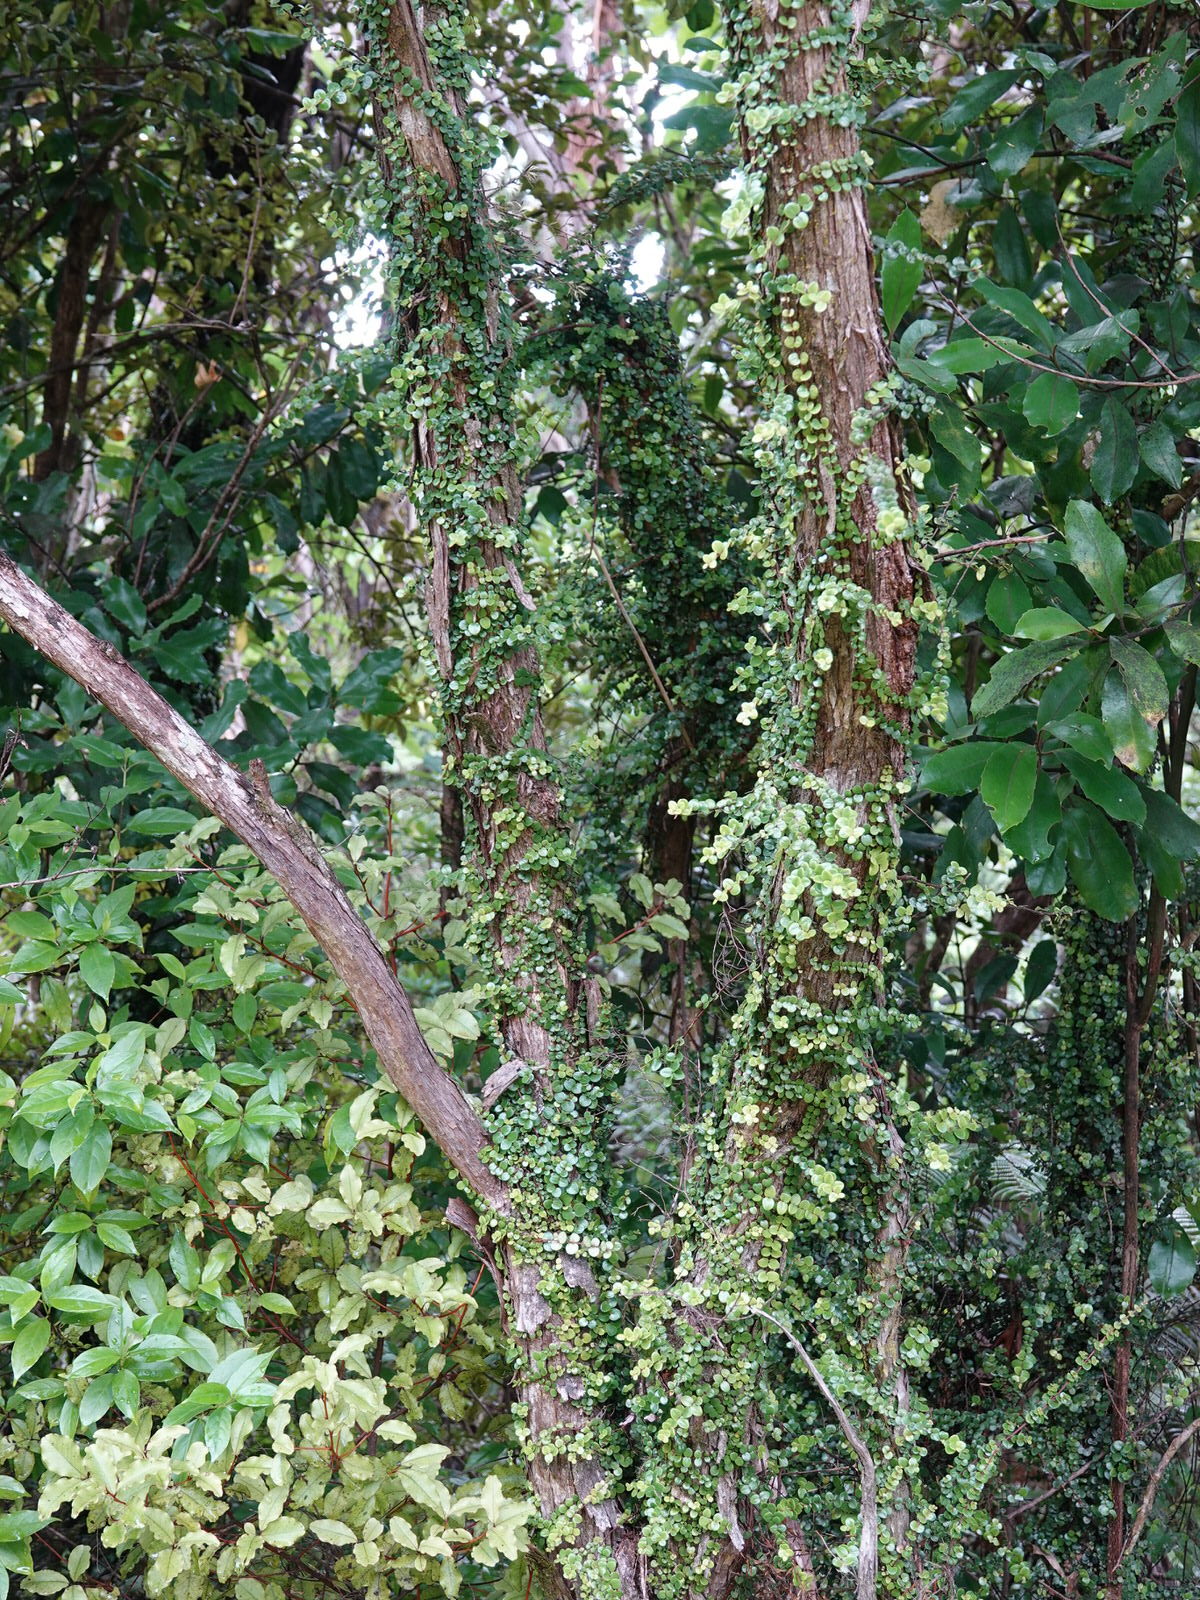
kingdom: Plantae
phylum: Tracheophyta
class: Magnoliopsida
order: Myrtales
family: Myrtaceae
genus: Metrosideros
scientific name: Metrosideros perforata
